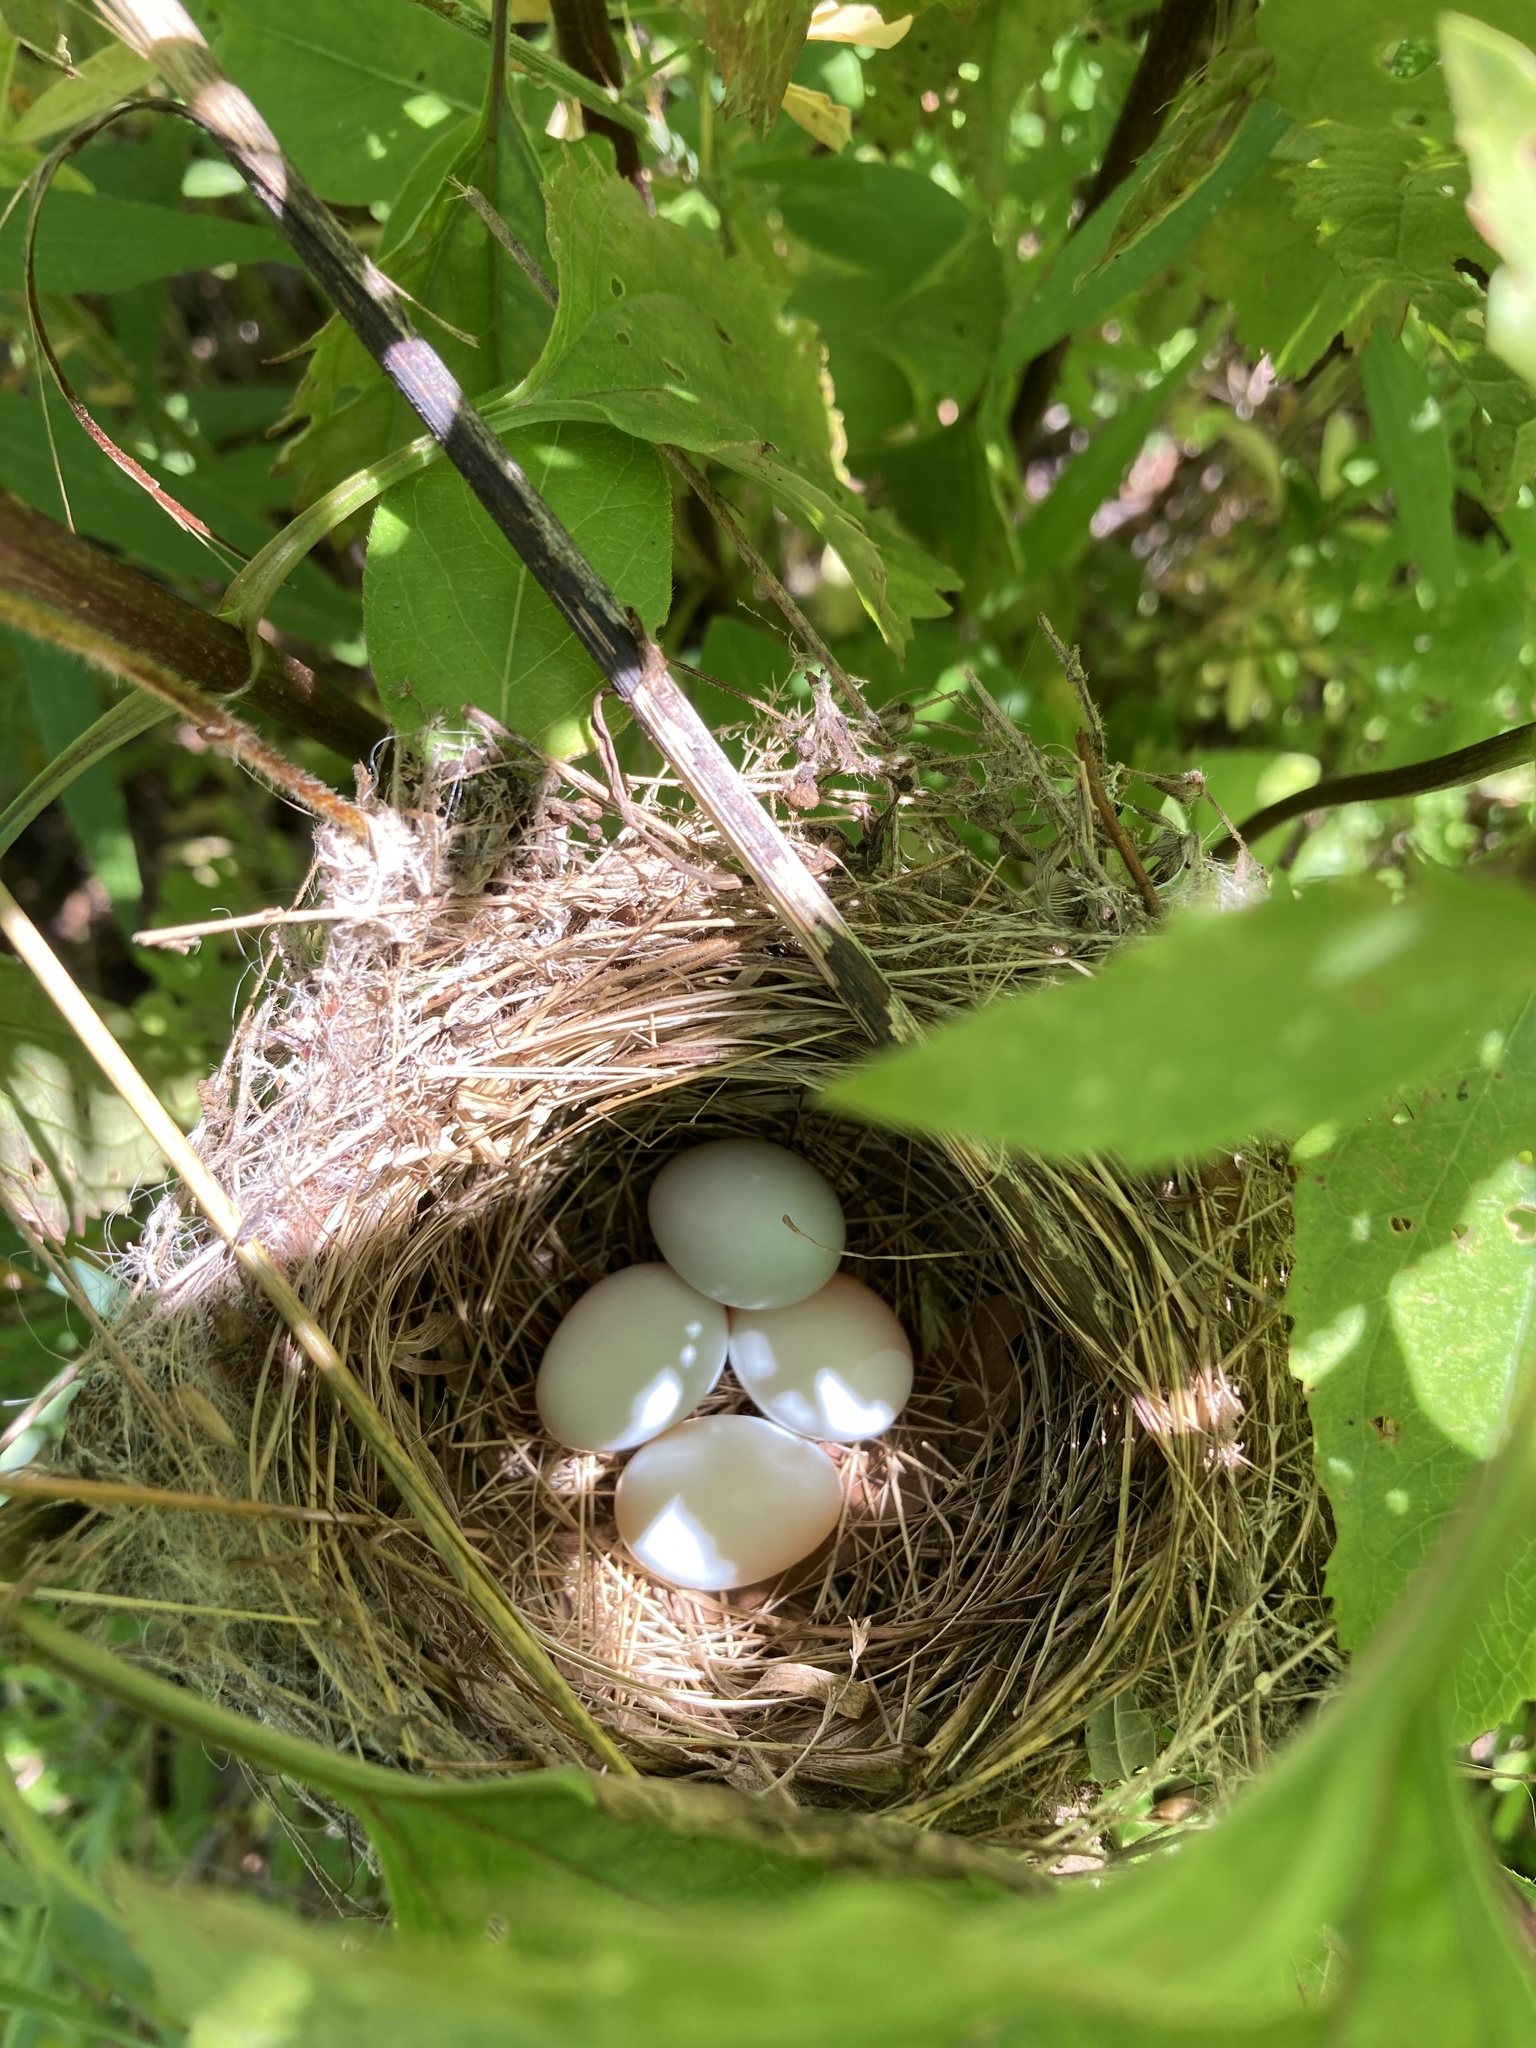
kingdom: Animalia
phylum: Chordata
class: Aves
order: Passeriformes
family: Cardinalidae
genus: Passerina
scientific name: Passerina cyanea
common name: Indigo bunting
